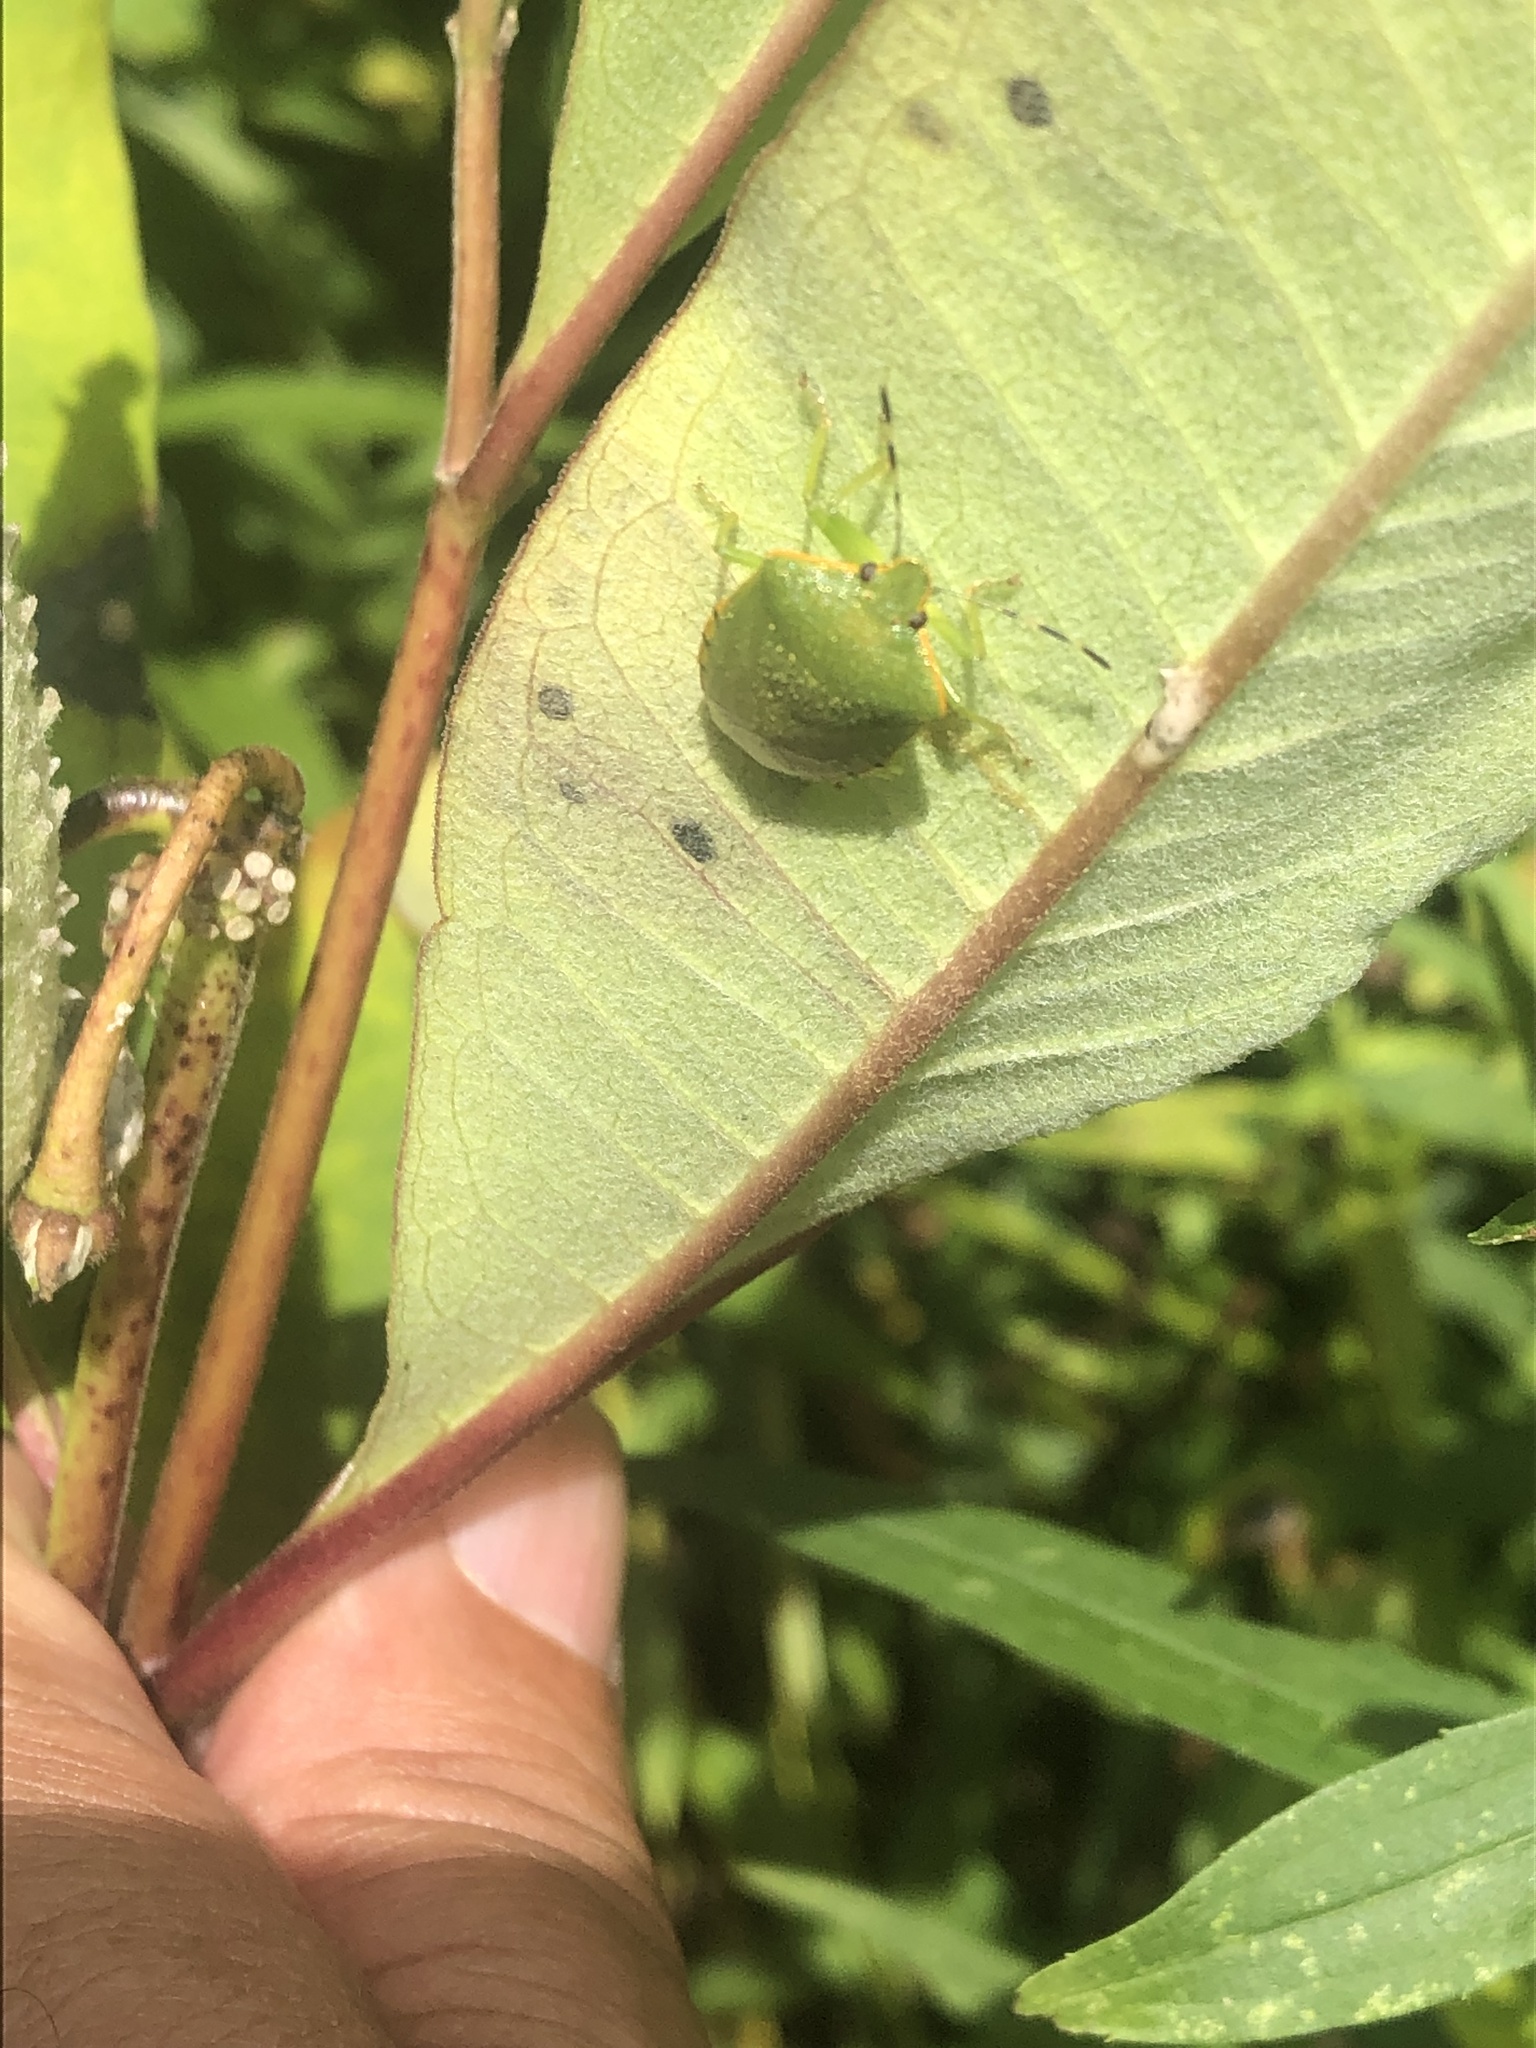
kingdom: Animalia
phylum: Arthropoda
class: Insecta
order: Hemiptera
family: Pentatomidae
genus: Chinavia
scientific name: Chinavia hilaris
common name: Green stink bug
